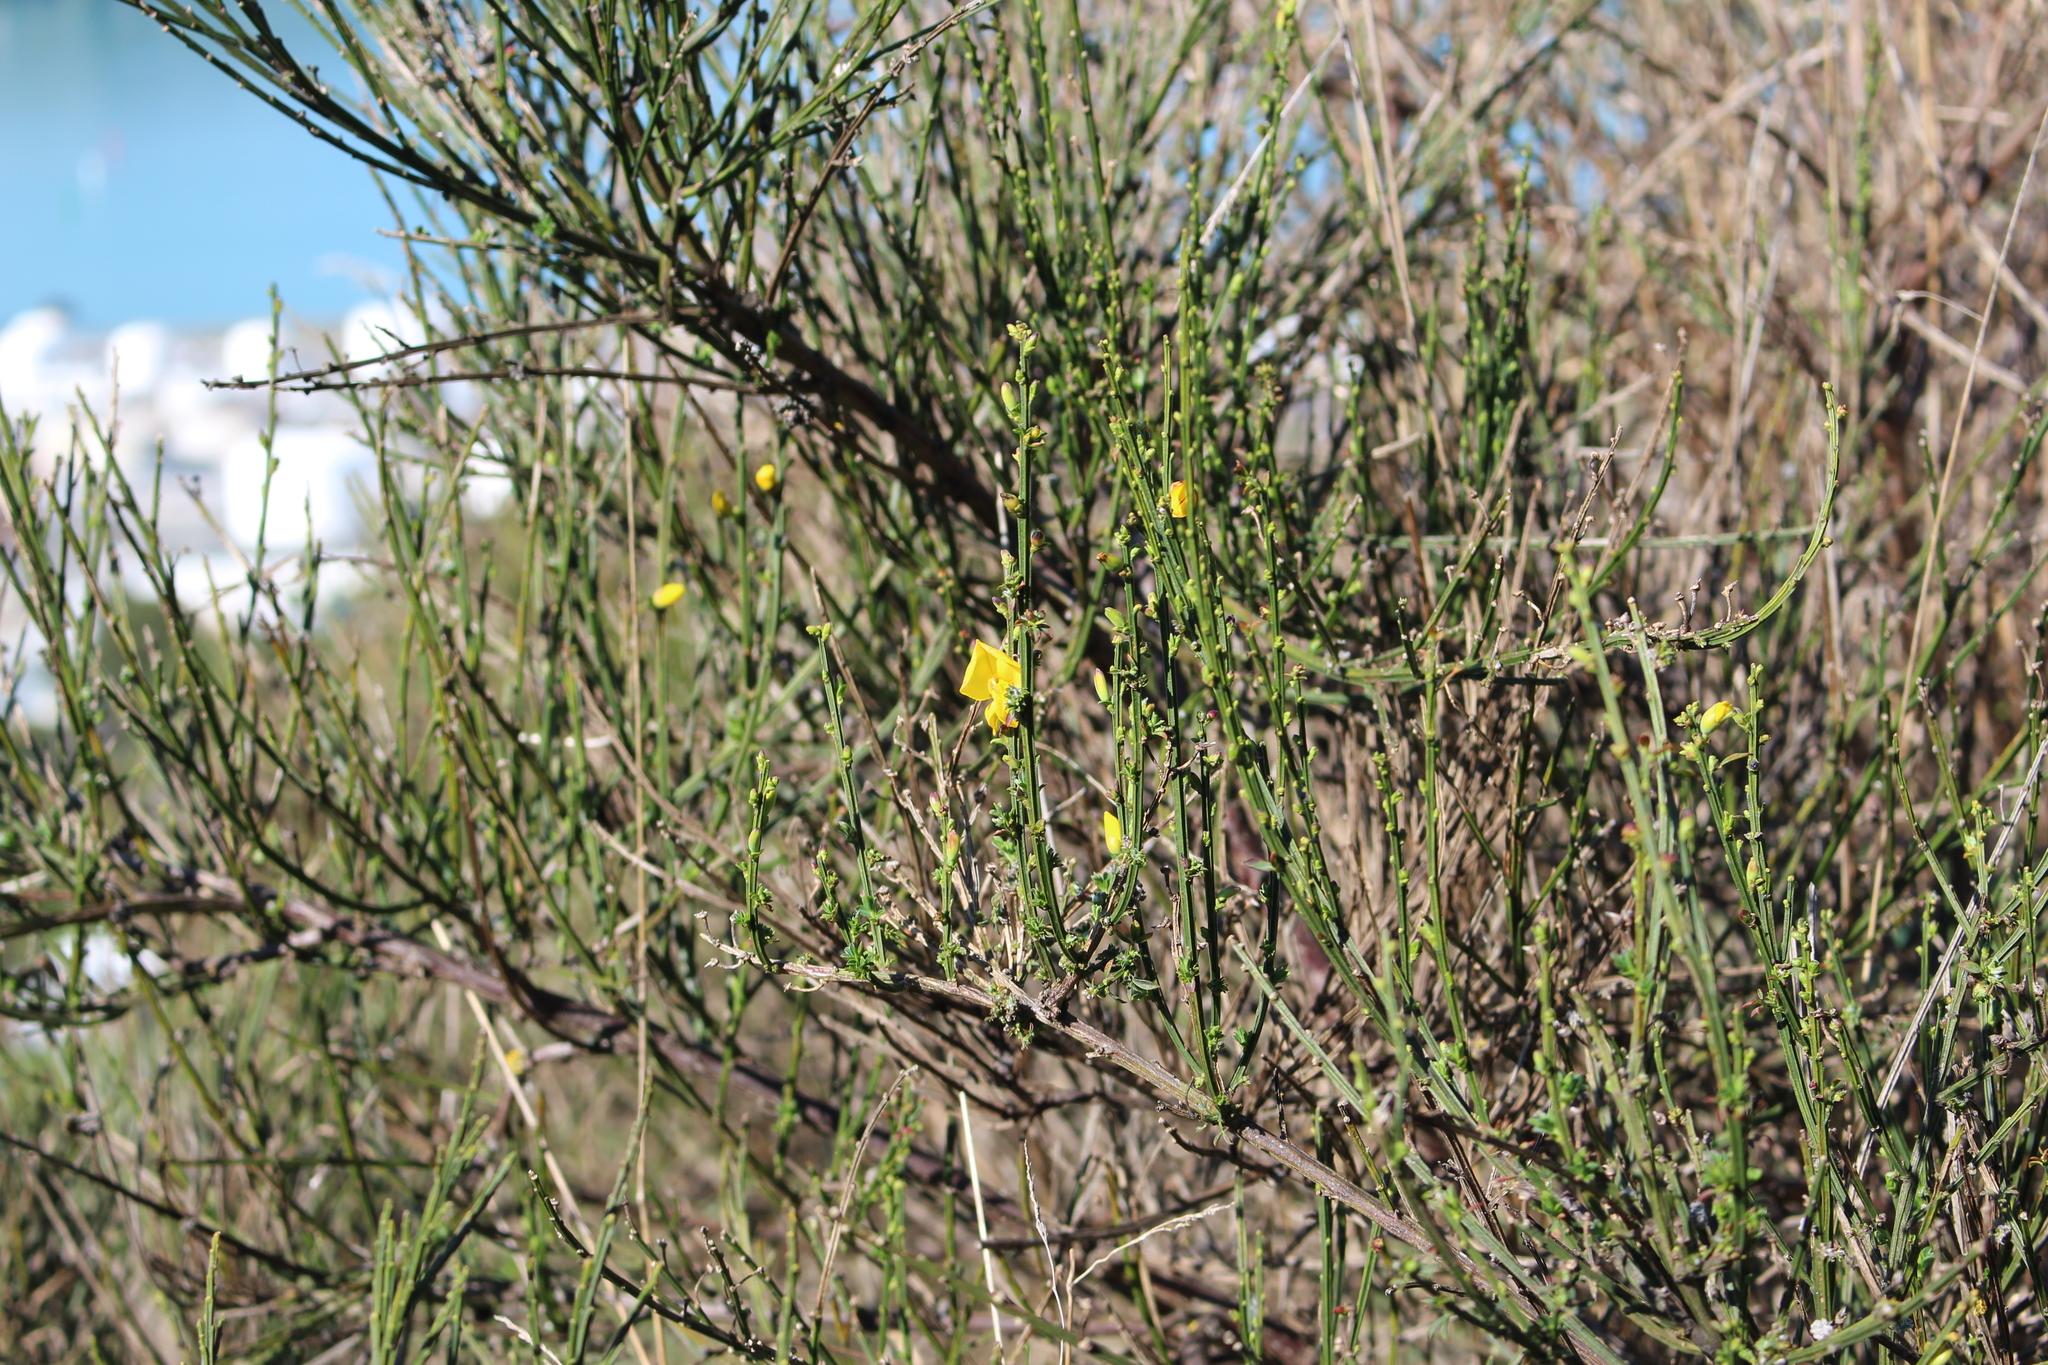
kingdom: Plantae
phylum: Tracheophyta
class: Magnoliopsida
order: Fabales
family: Fabaceae
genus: Cytisus
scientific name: Cytisus scoparius
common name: Scotch broom
